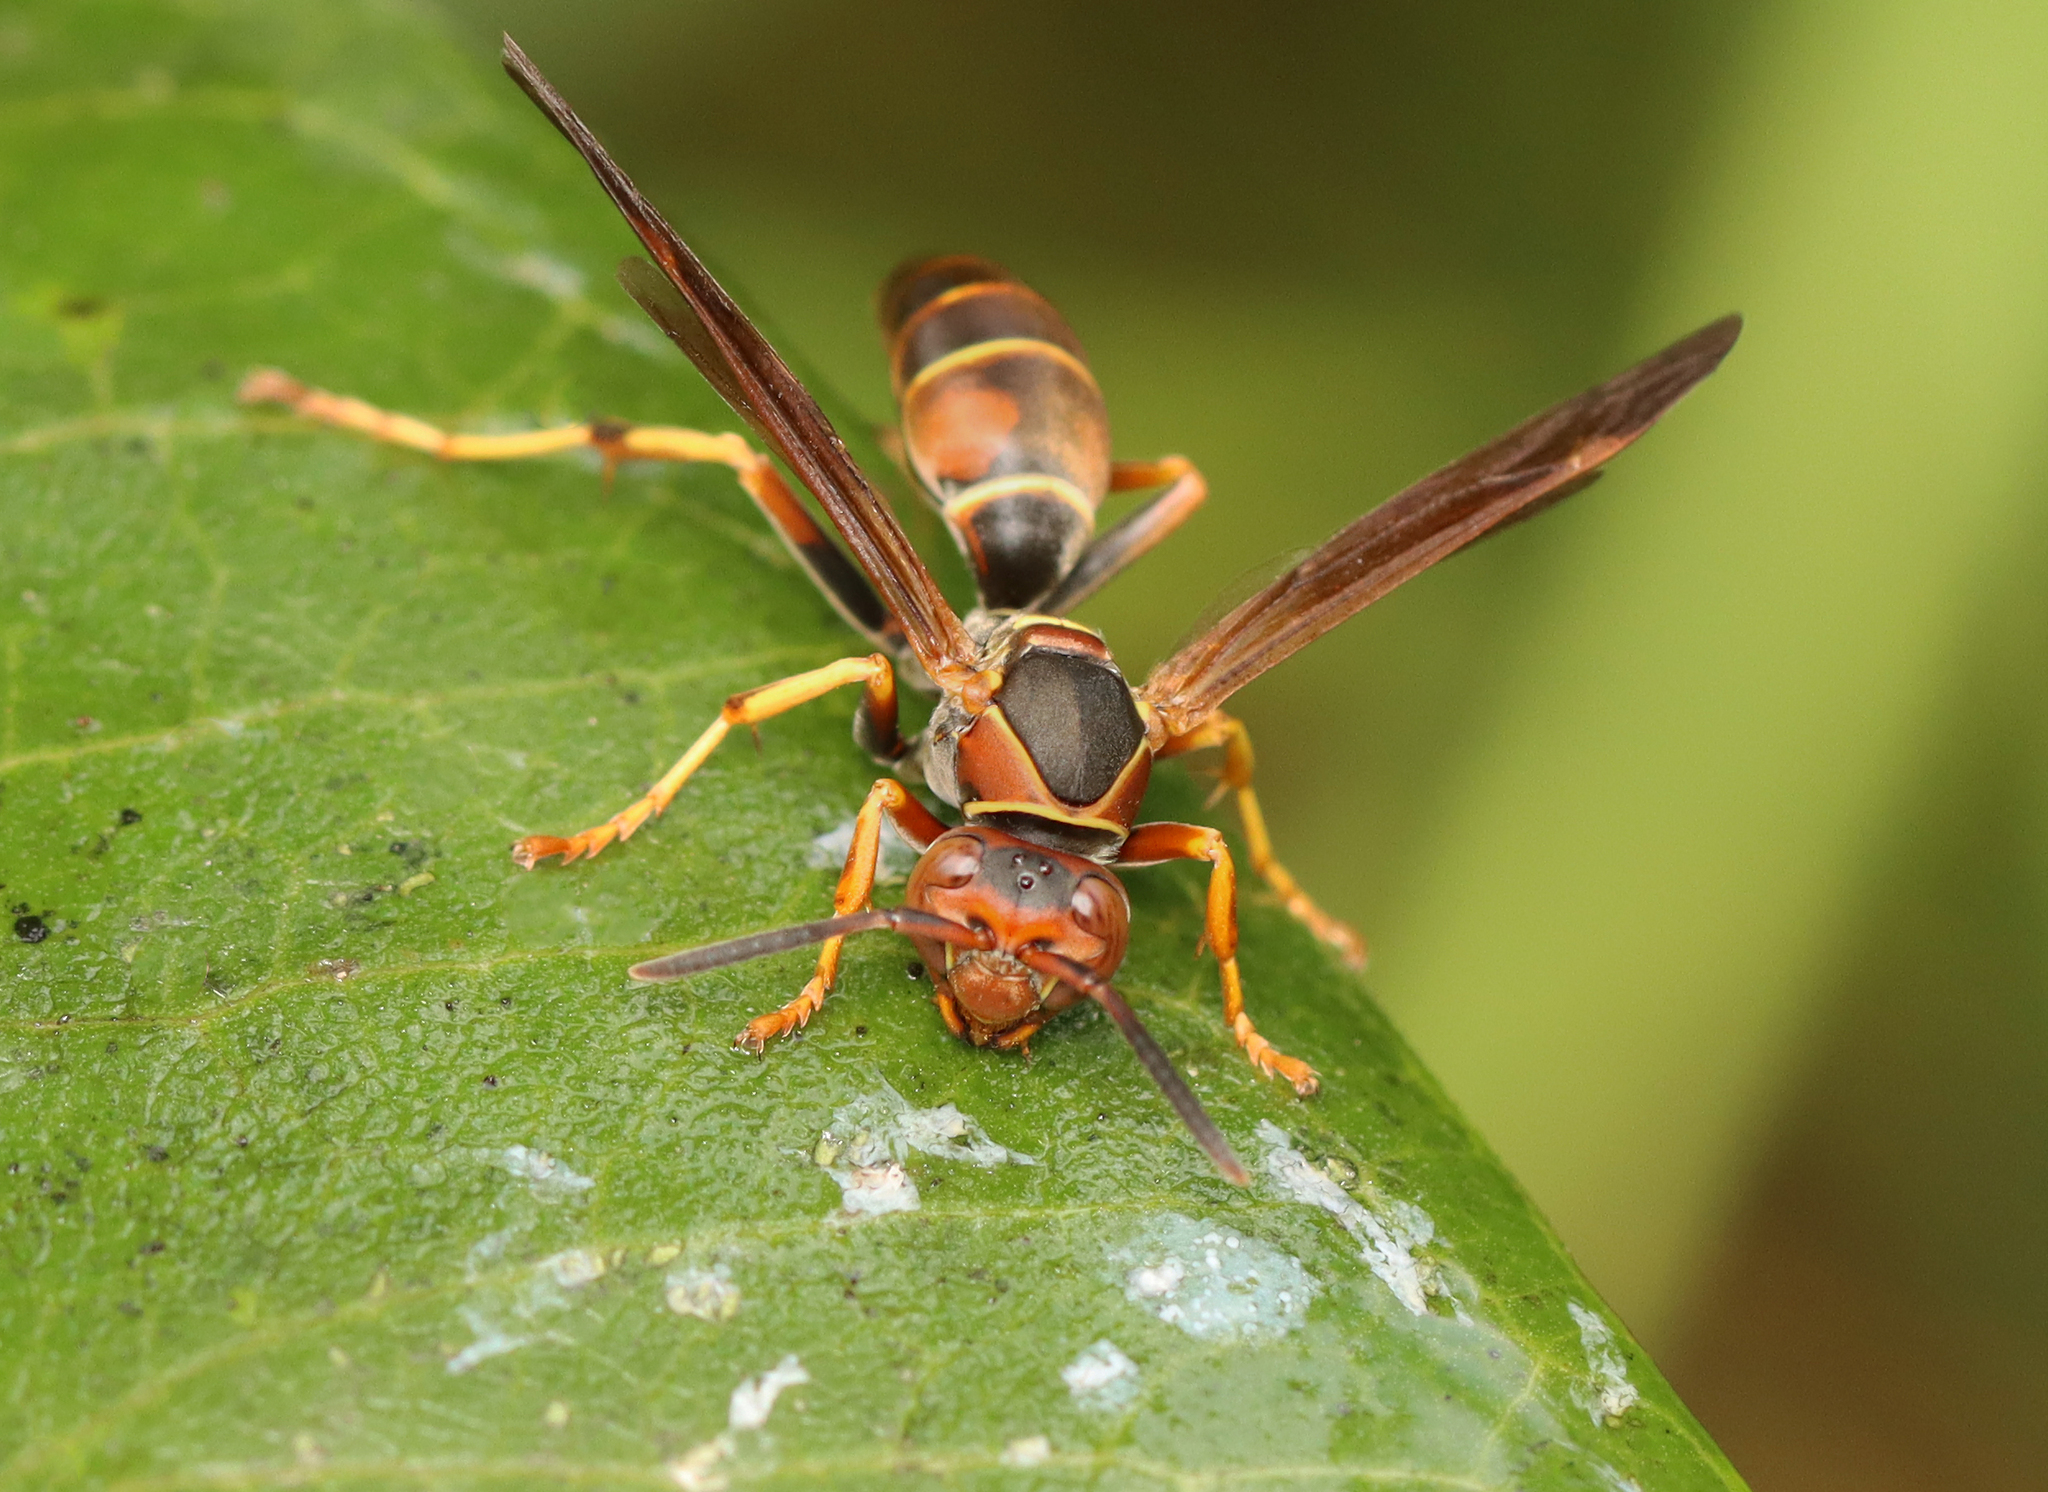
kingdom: Animalia
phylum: Arthropoda
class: Insecta
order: Hymenoptera
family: Eumenidae
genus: Polistes
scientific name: Polistes fuscatus
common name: Dark paper wasp
